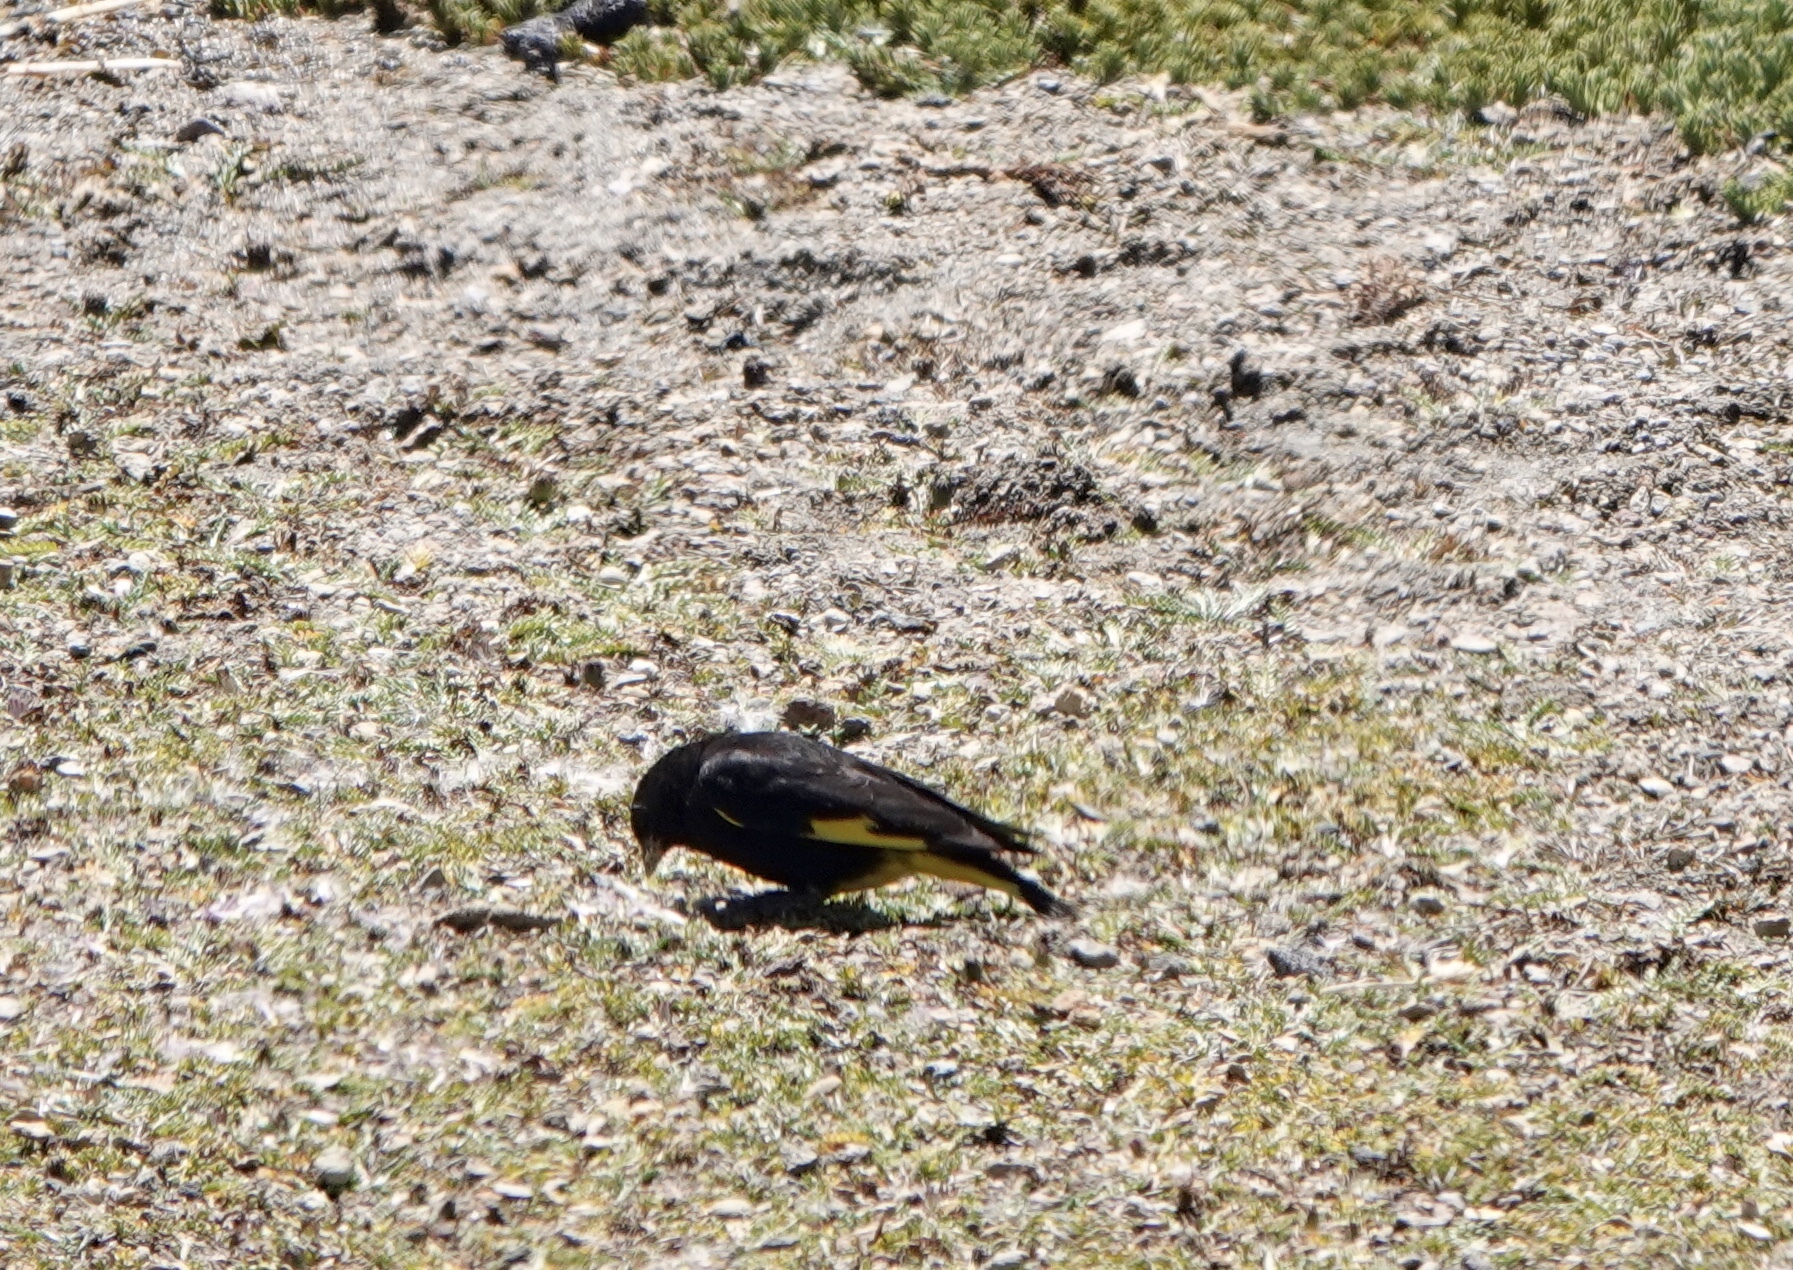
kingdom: Animalia
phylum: Chordata
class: Aves
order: Passeriformes
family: Fringillidae
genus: Spinus
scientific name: Spinus atratus
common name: Black siskin
